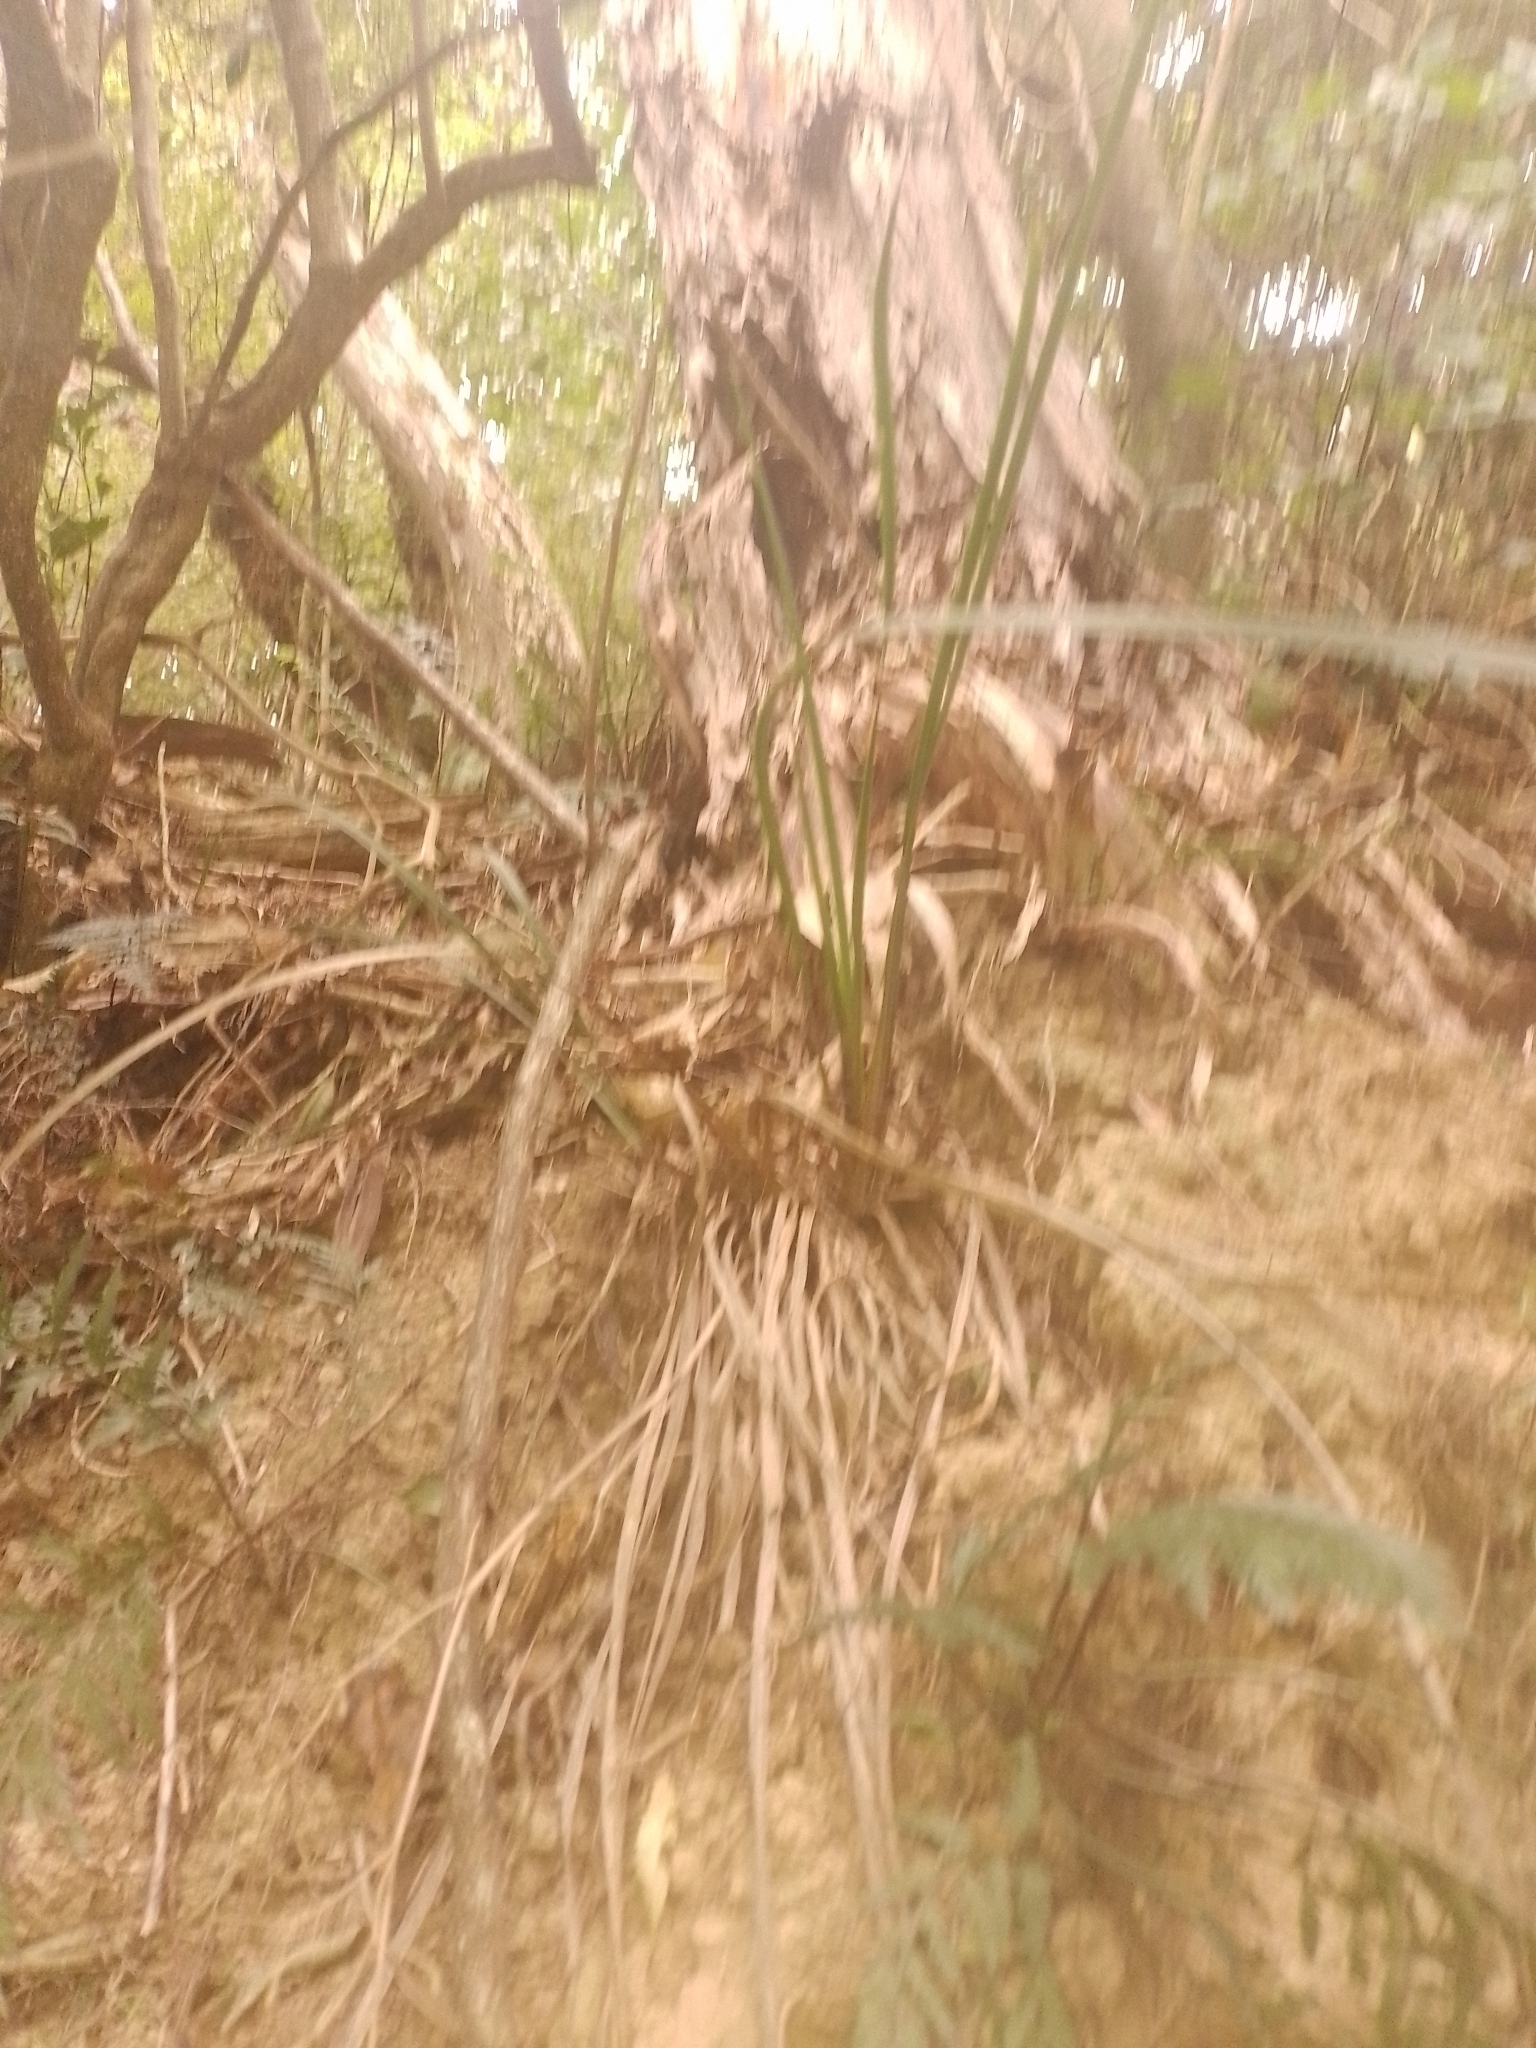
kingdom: Plantae
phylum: Tracheophyta
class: Liliopsida
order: Asparagales
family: Iridaceae
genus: Libertia
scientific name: Libertia ixioides
